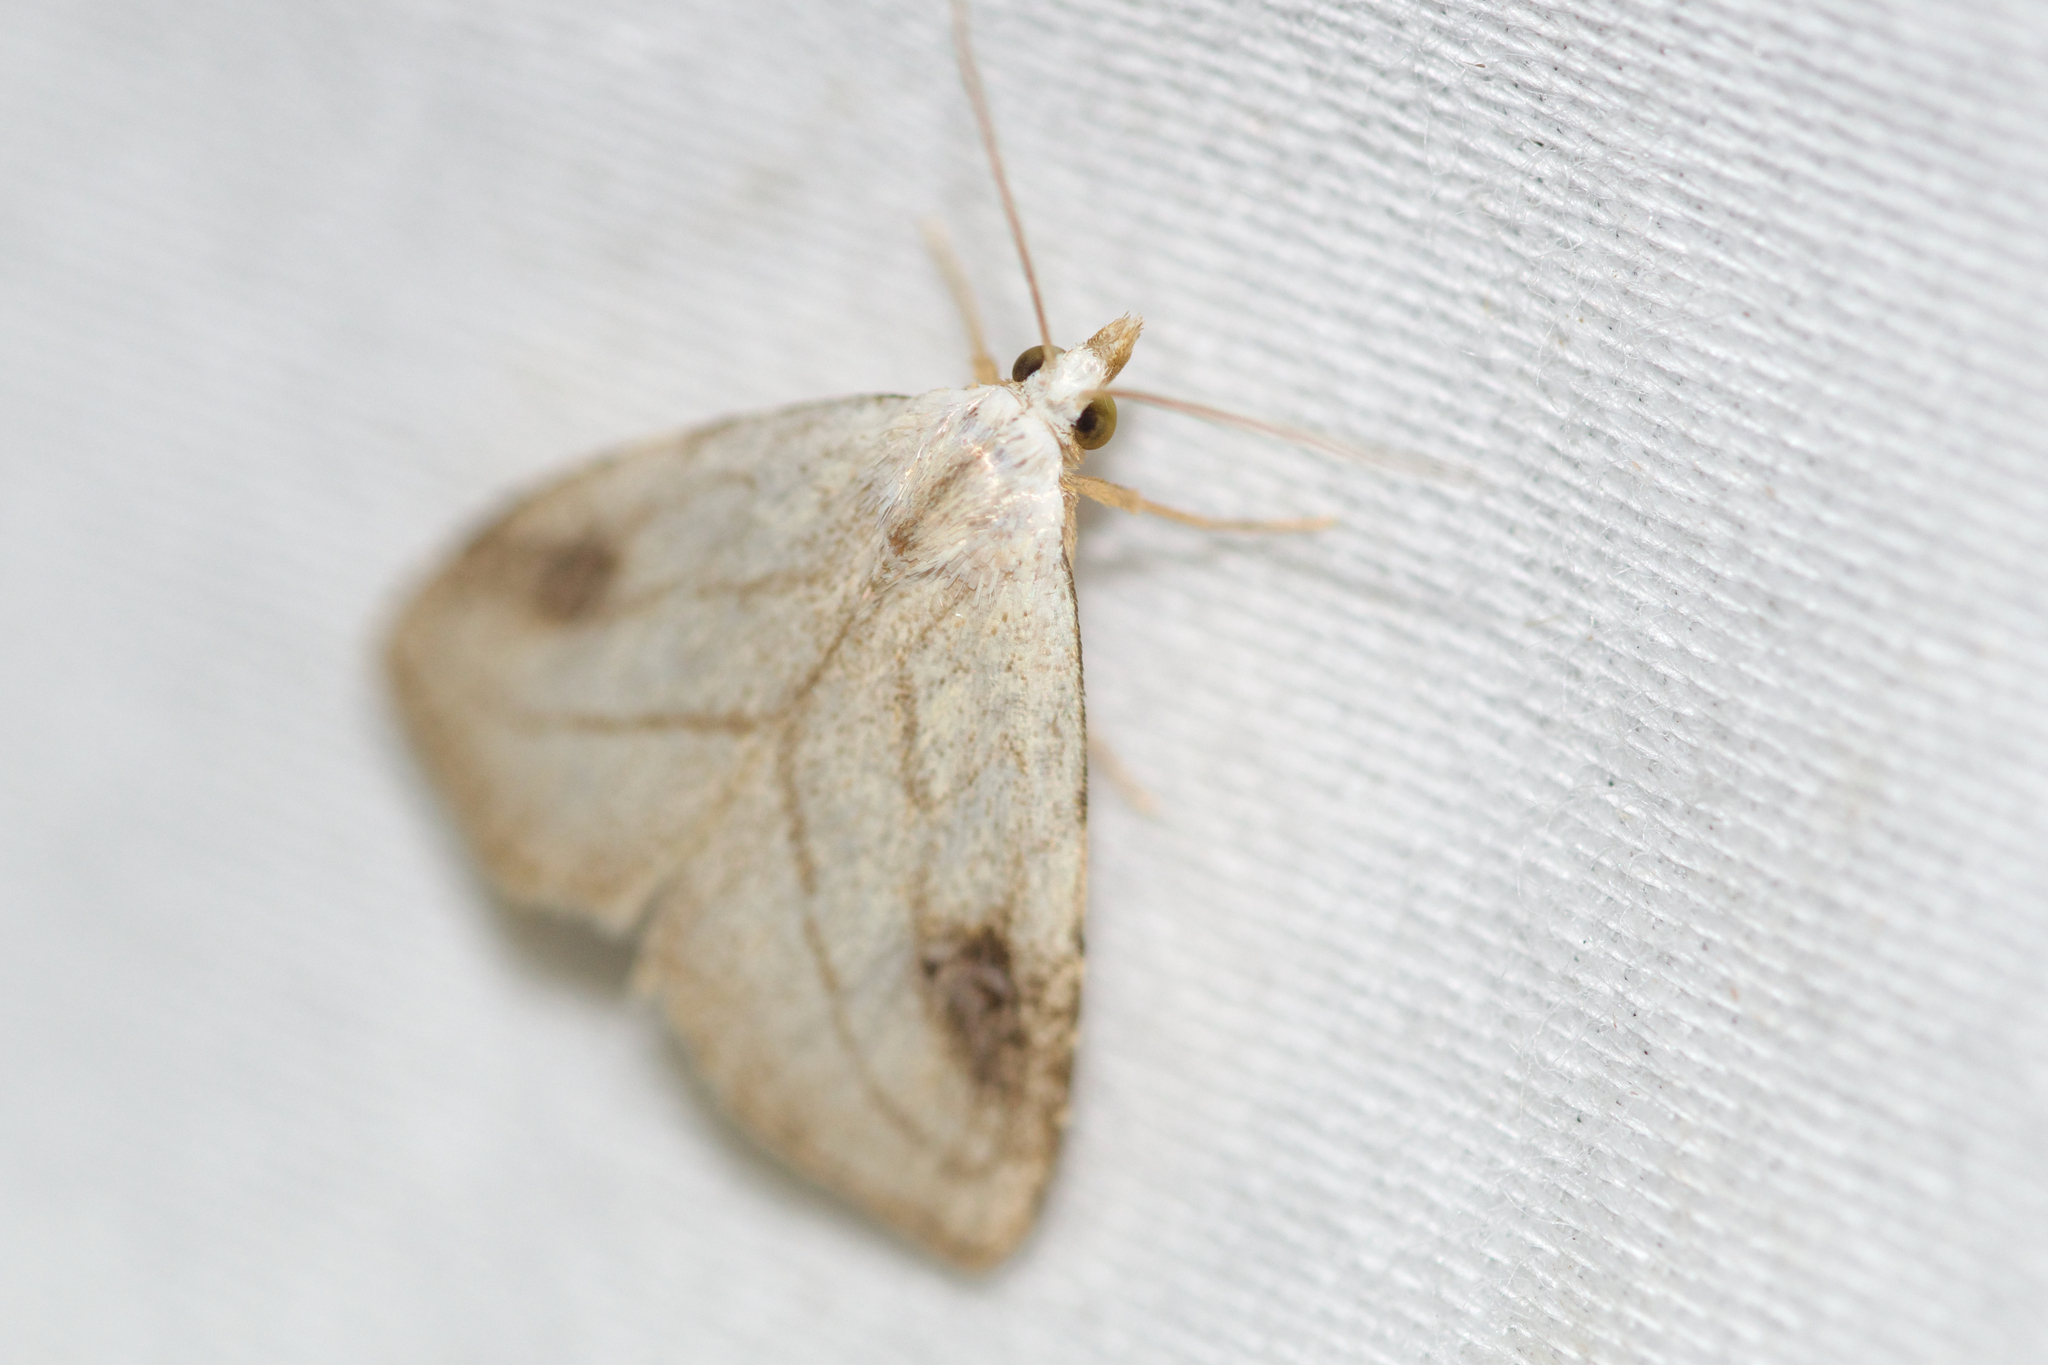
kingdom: Animalia
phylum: Arthropoda
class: Insecta
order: Lepidoptera
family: Erebidae
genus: Rivula
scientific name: Rivula propinqualis
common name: Spotted grass moth
